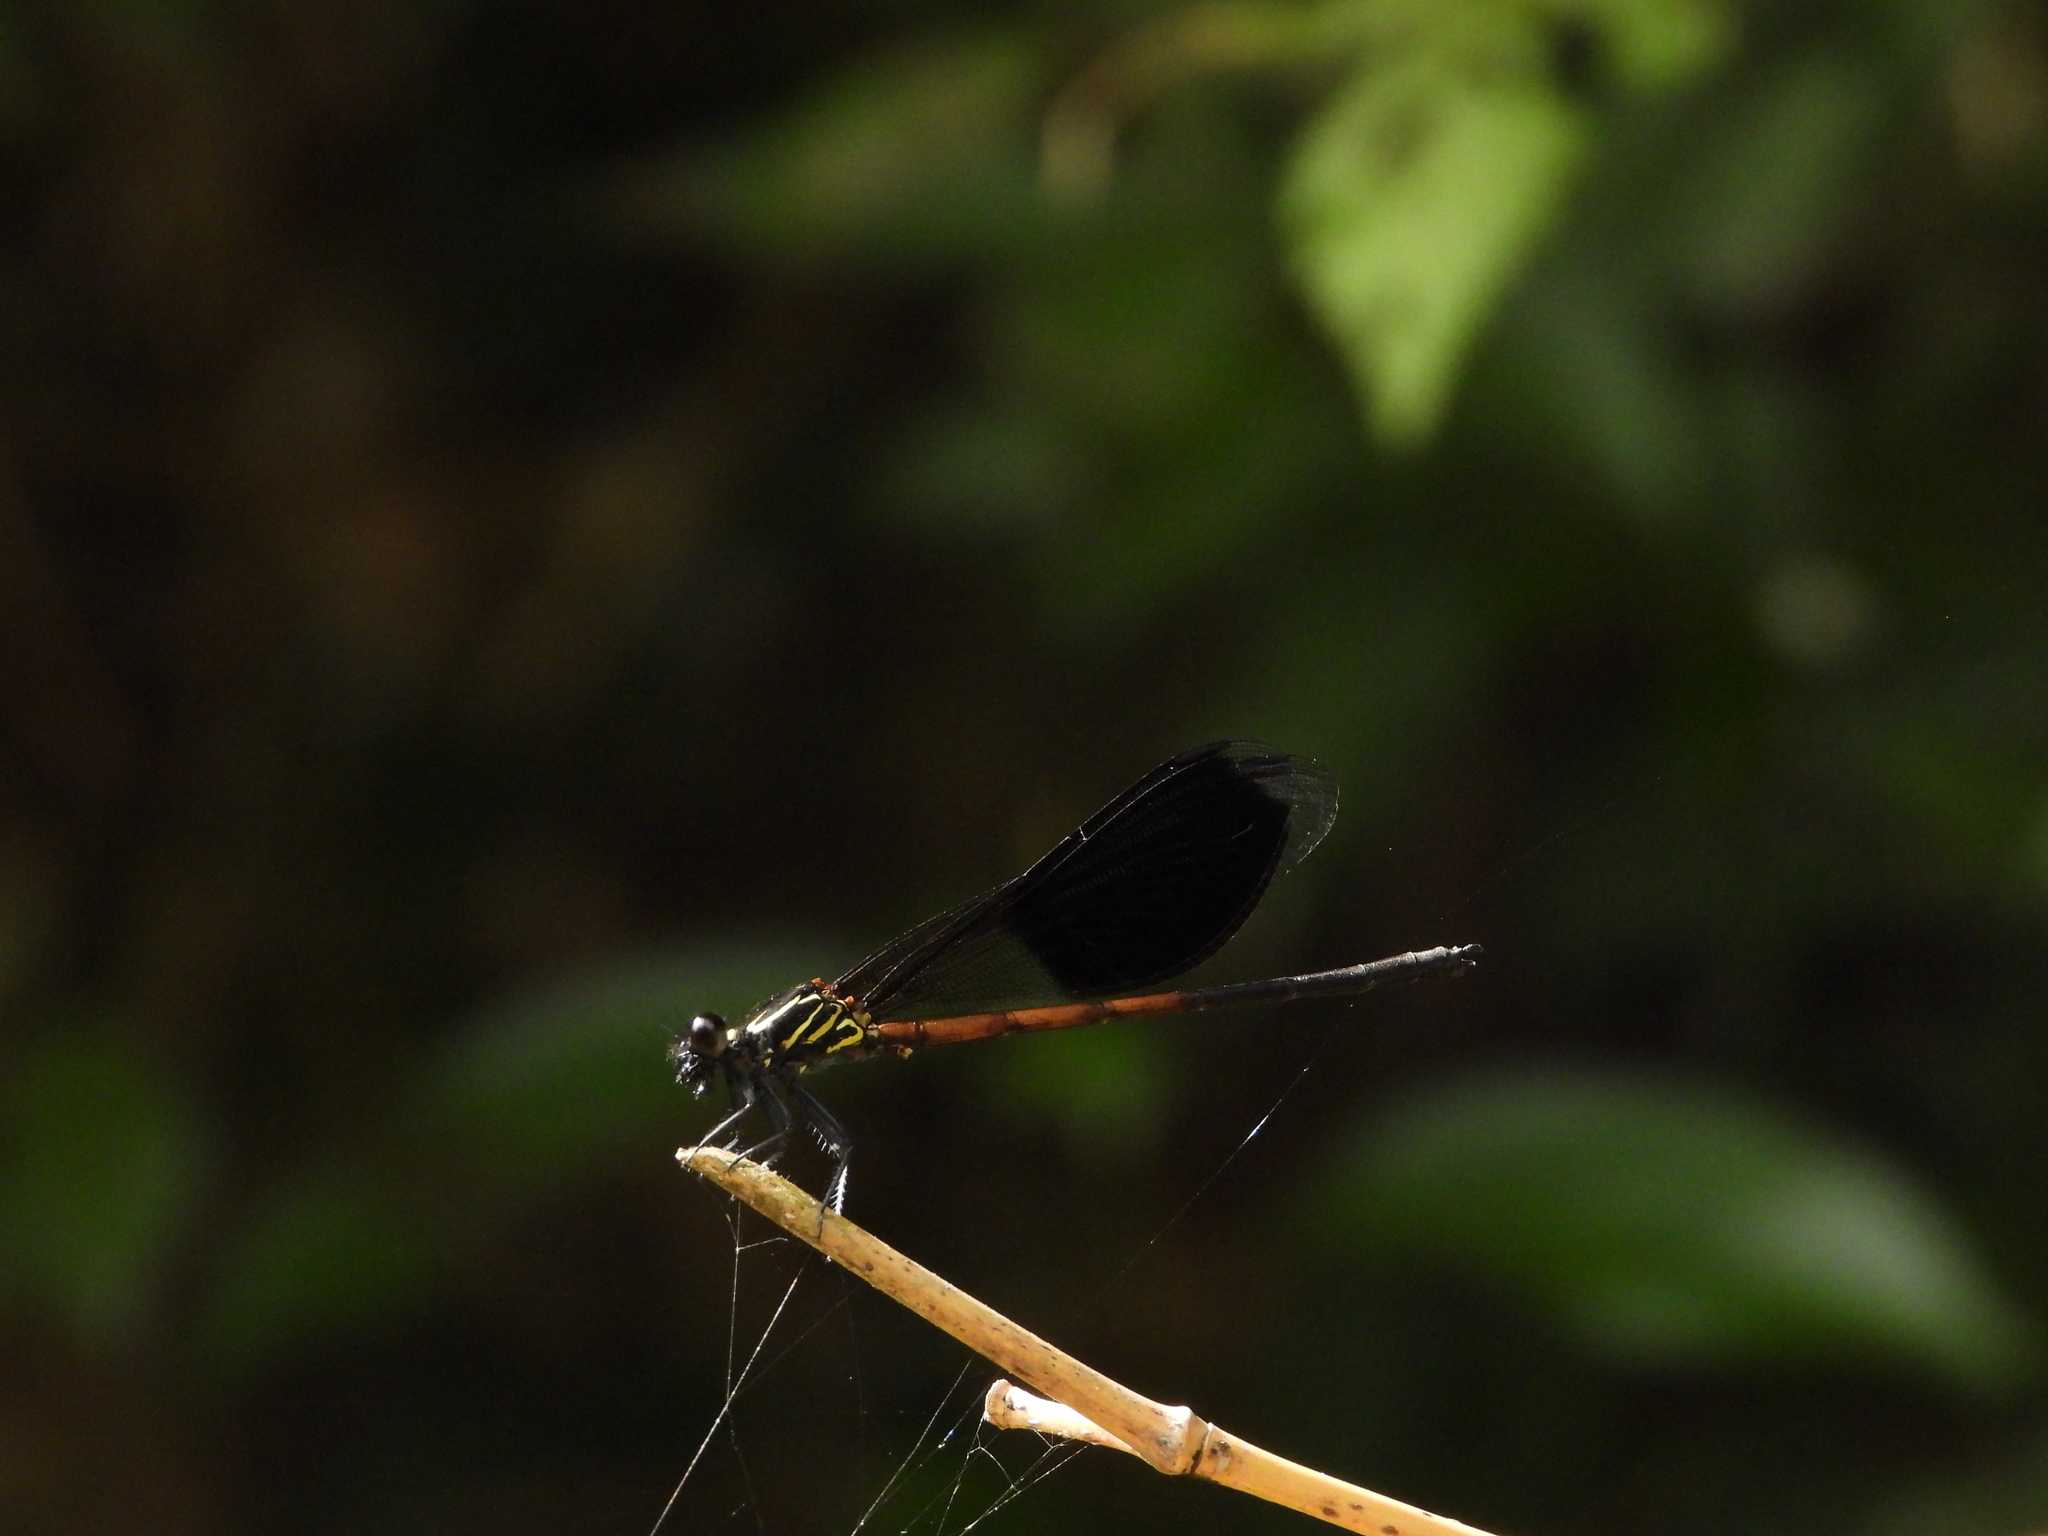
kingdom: Animalia
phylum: Arthropoda
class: Insecta
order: Odonata
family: Euphaeidae
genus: Euphaea
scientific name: Euphaea formosa
